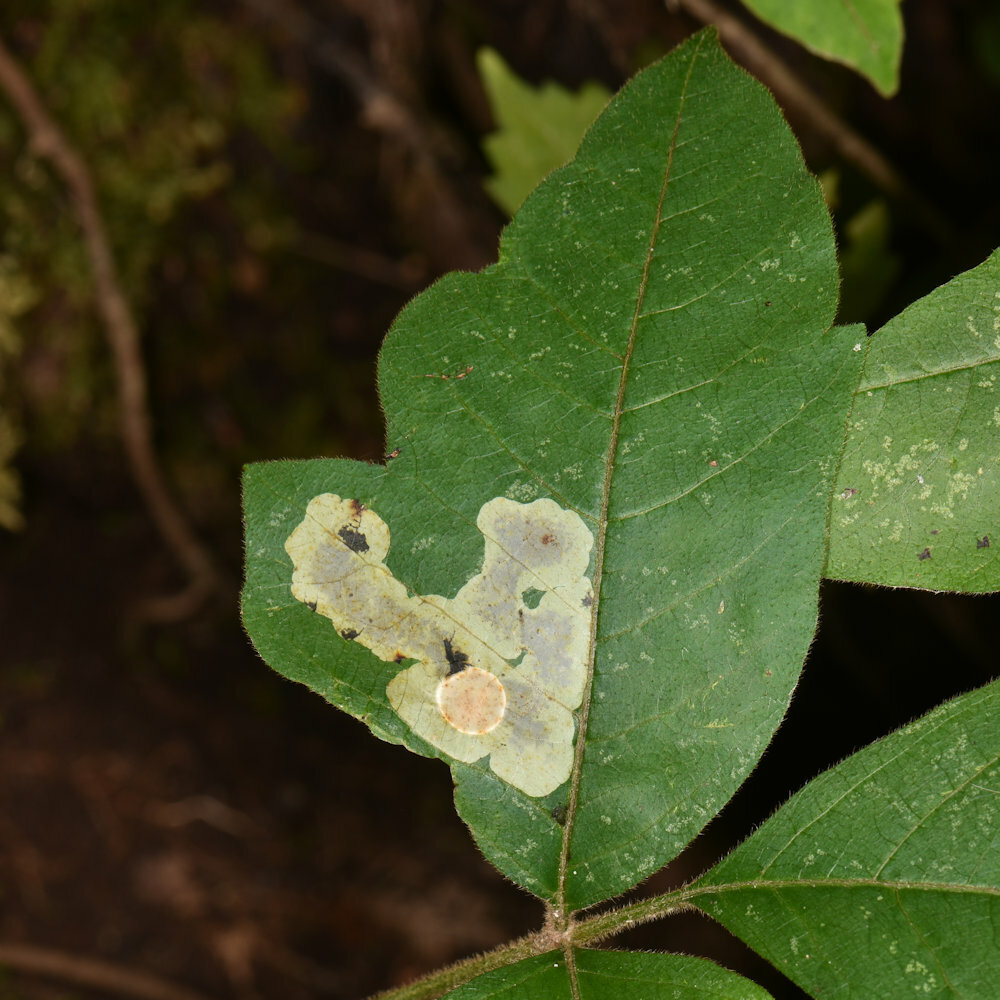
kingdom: Animalia
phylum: Arthropoda
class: Insecta
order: Lepidoptera
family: Gracillariidae
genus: Cameraria
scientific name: Cameraria guttifinitella
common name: Poison ivy leaf-miner moth
